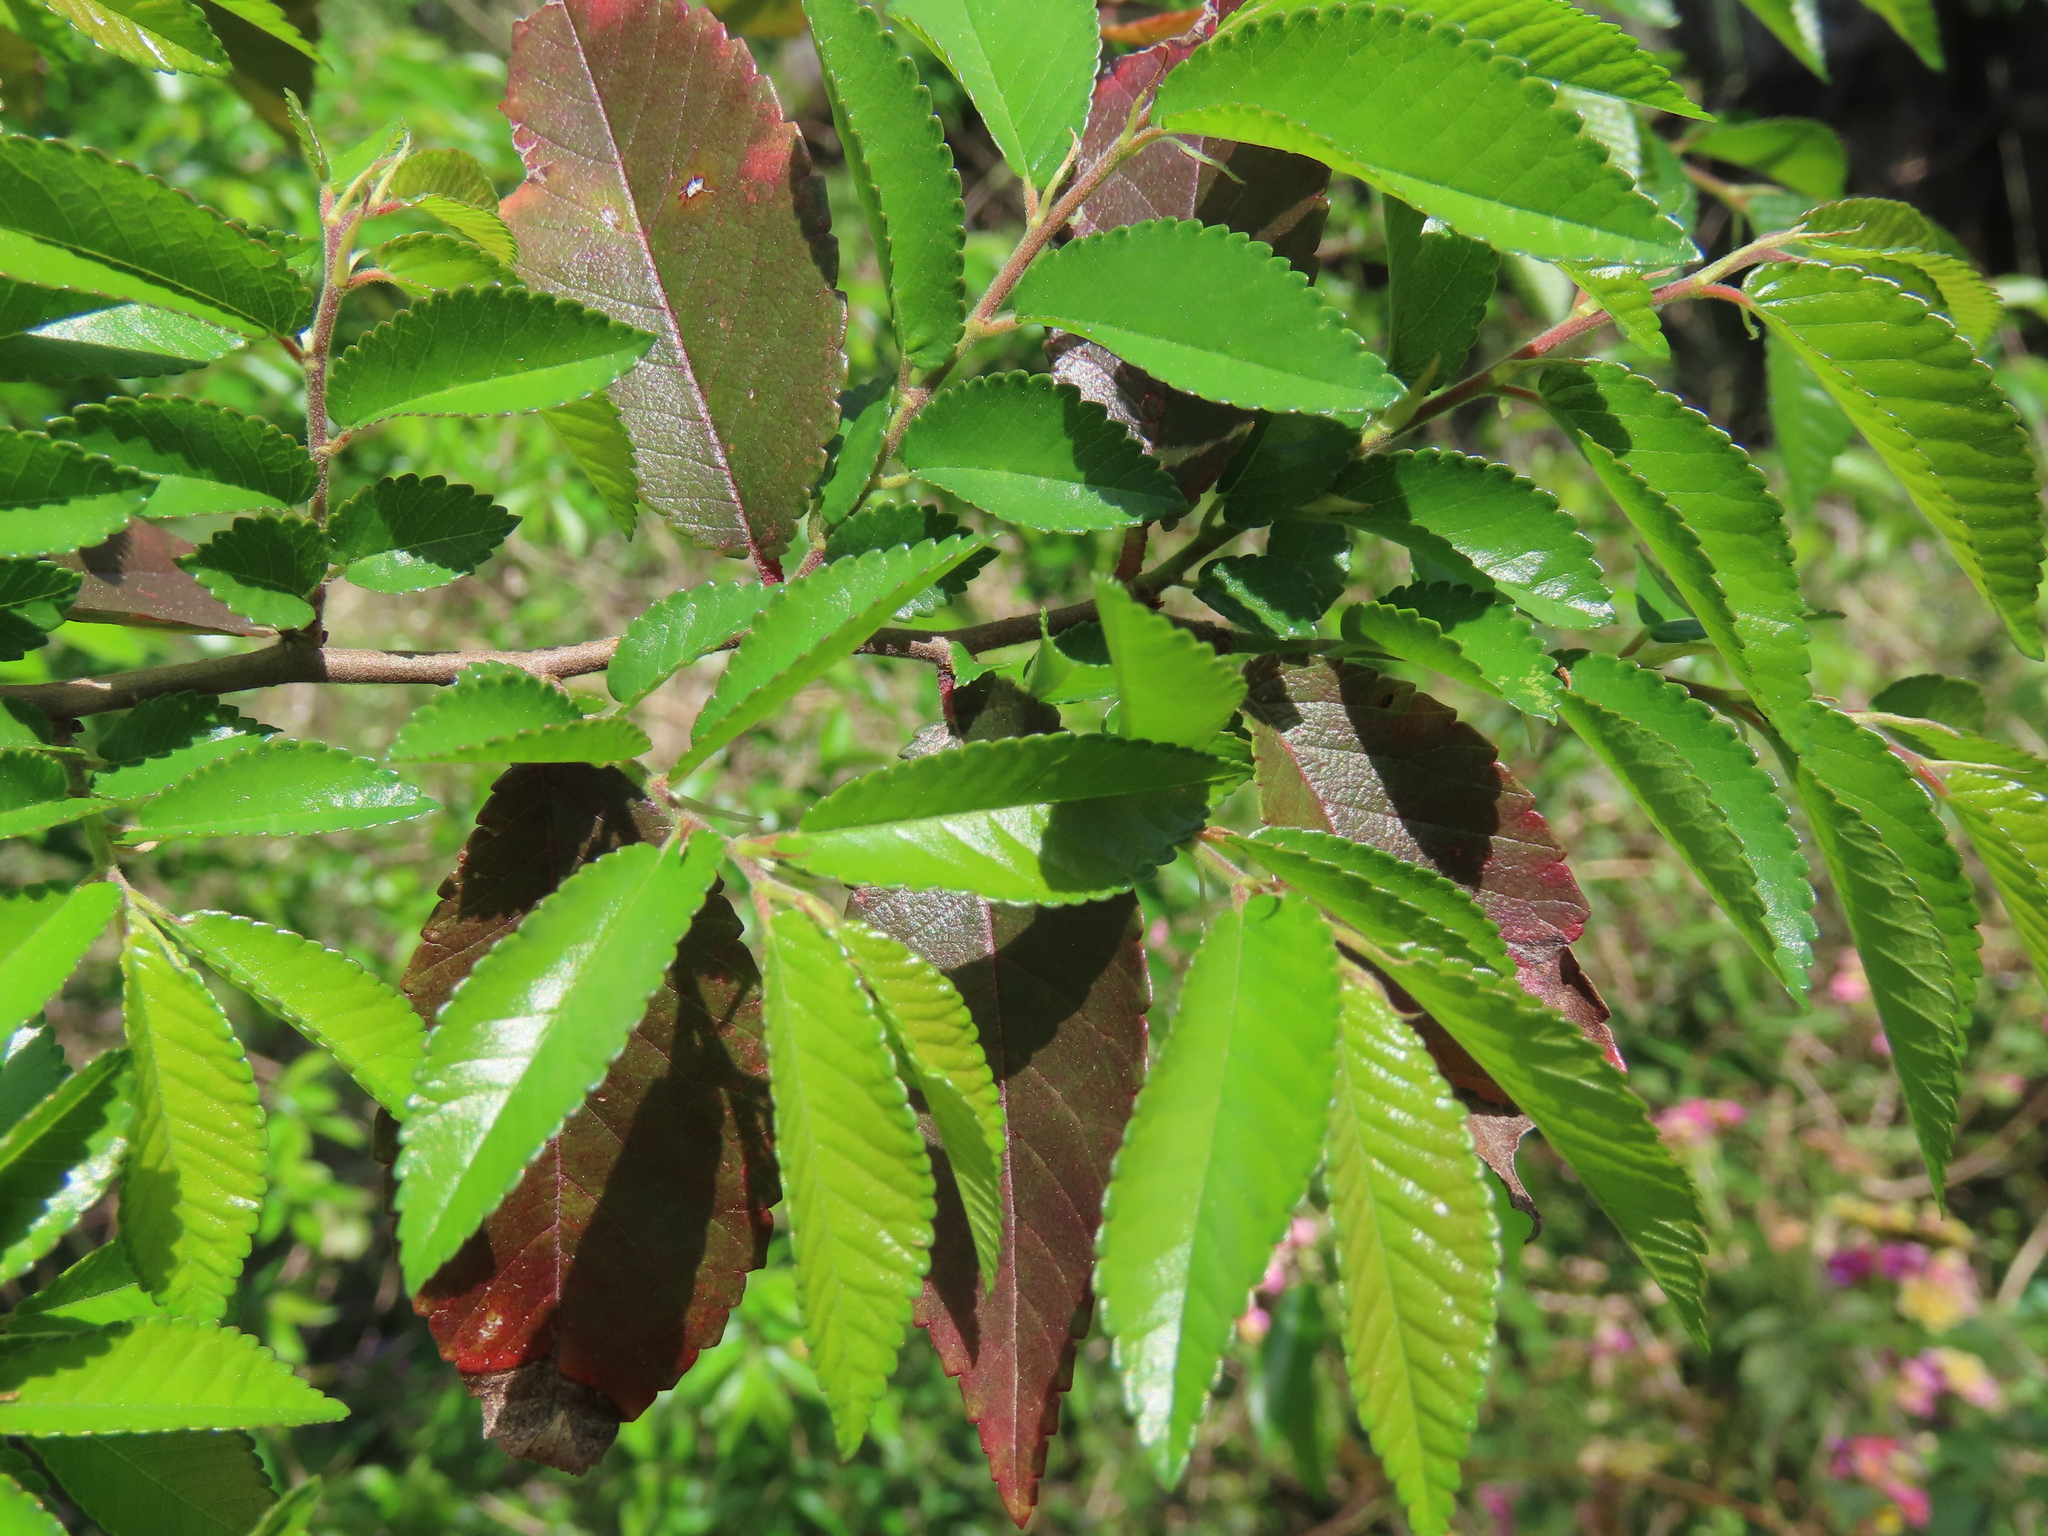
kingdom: Plantae
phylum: Tracheophyta
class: Magnoliopsida
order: Rosales
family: Ulmaceae
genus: Ulmus
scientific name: Ulmus parvifolia
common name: Chinese elm
